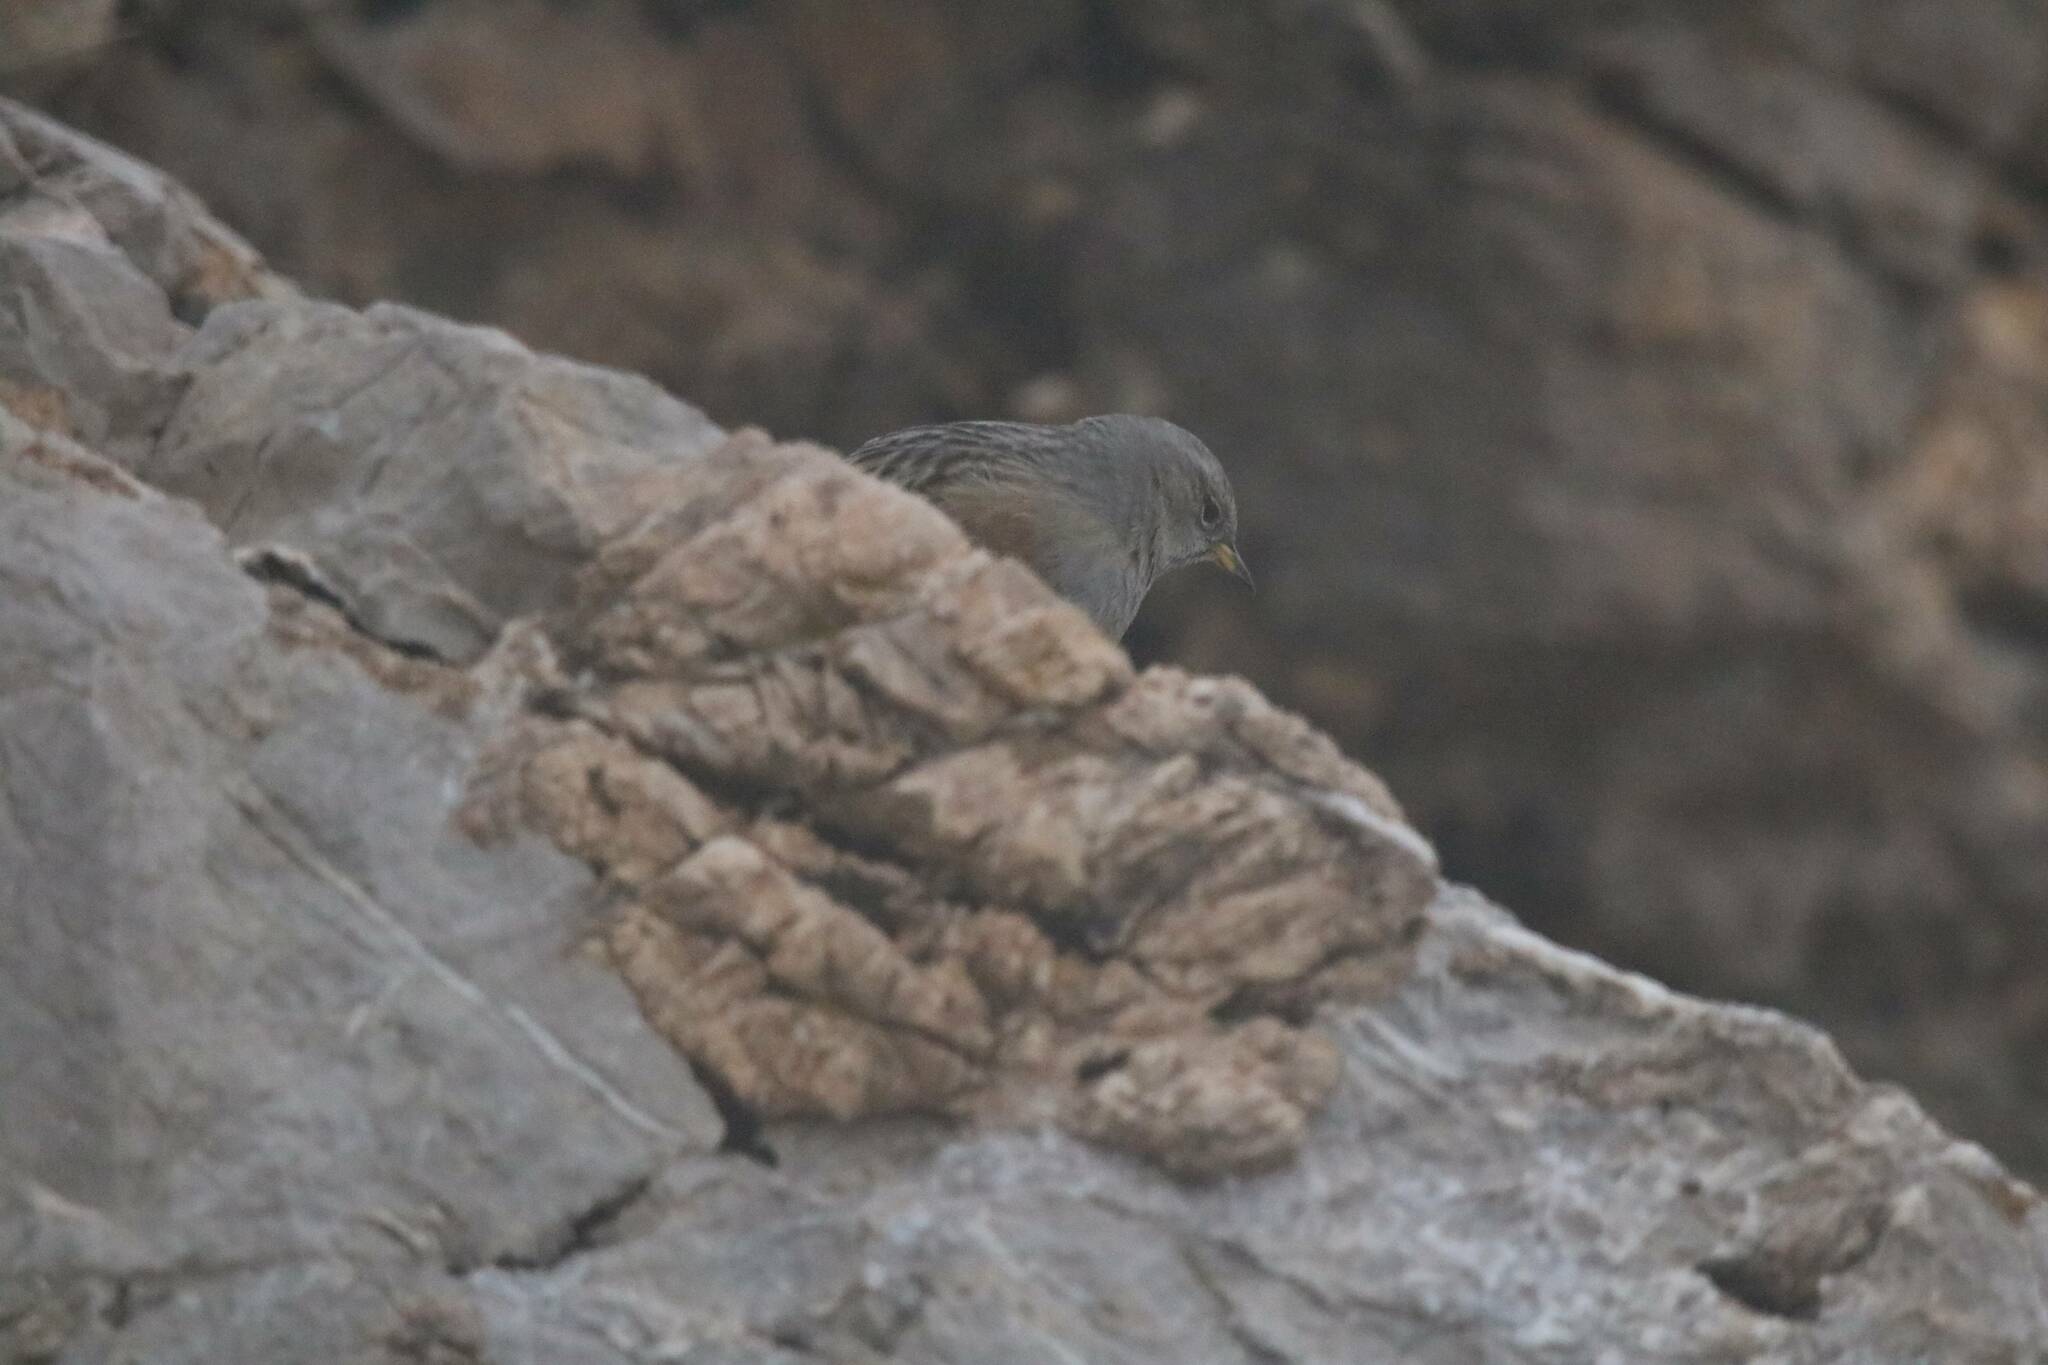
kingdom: Animalia
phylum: Chordata
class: Aves
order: Passeriformes
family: Prunellidae
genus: Prunella
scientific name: Prunella collaris
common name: Alpine accentor
